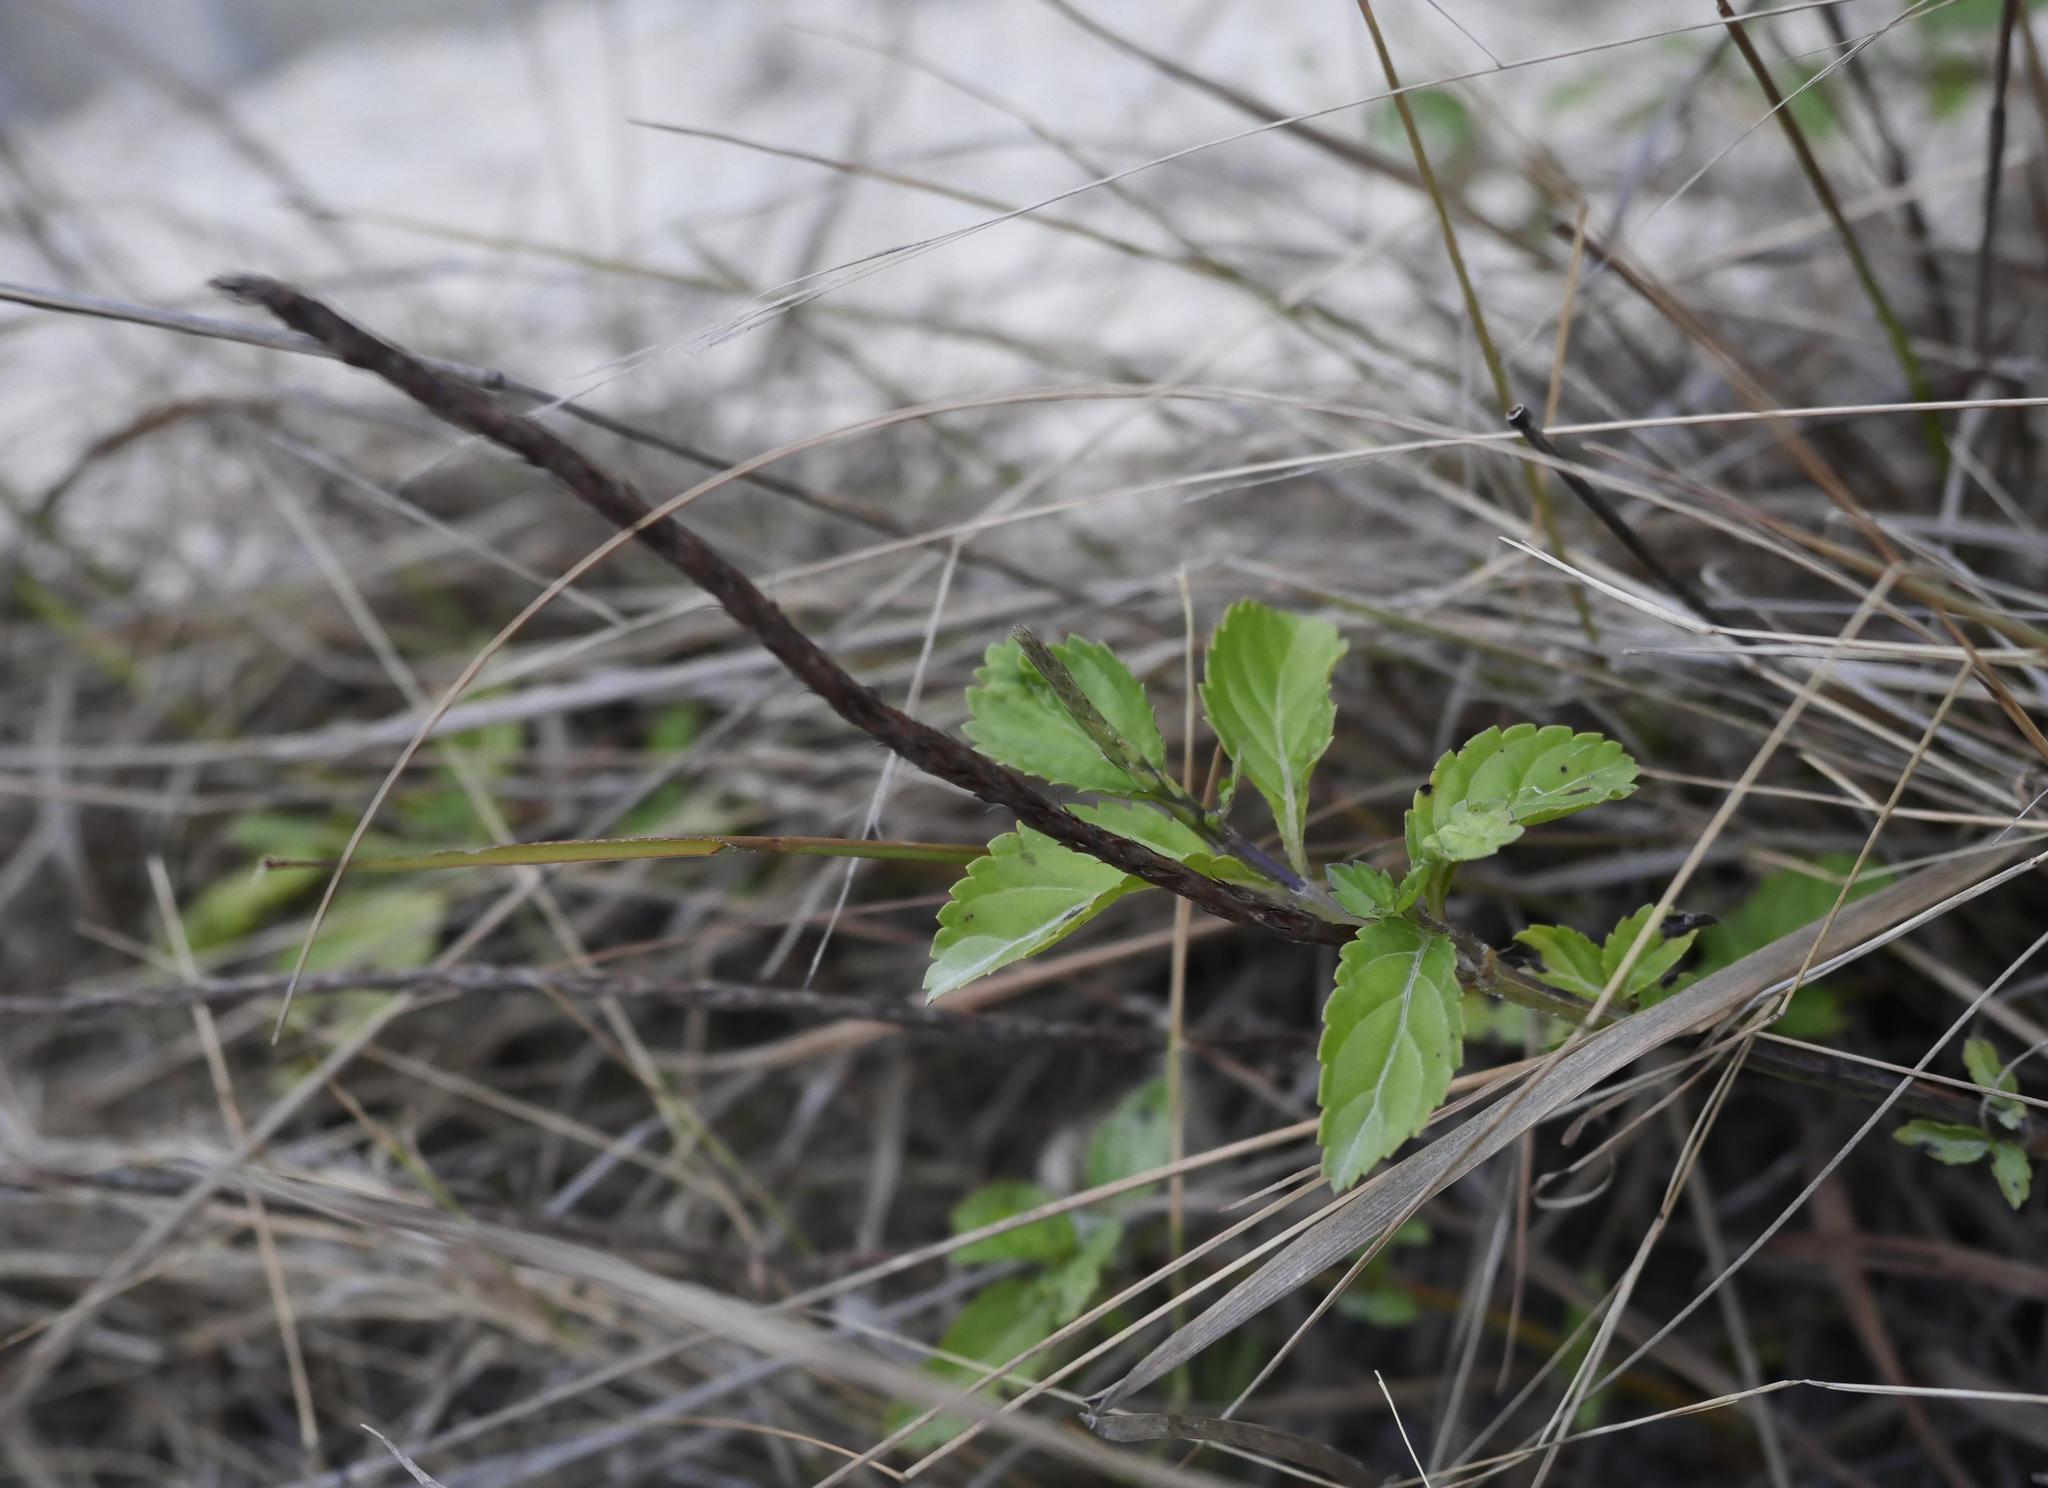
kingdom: Plantae
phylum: Tracheophyta
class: Magnoliopsida
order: Lamiales
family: Verbenaceae
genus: Stachytarpheta
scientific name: Stachytarpheta jamaicensis
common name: Light-blue snakeweed
